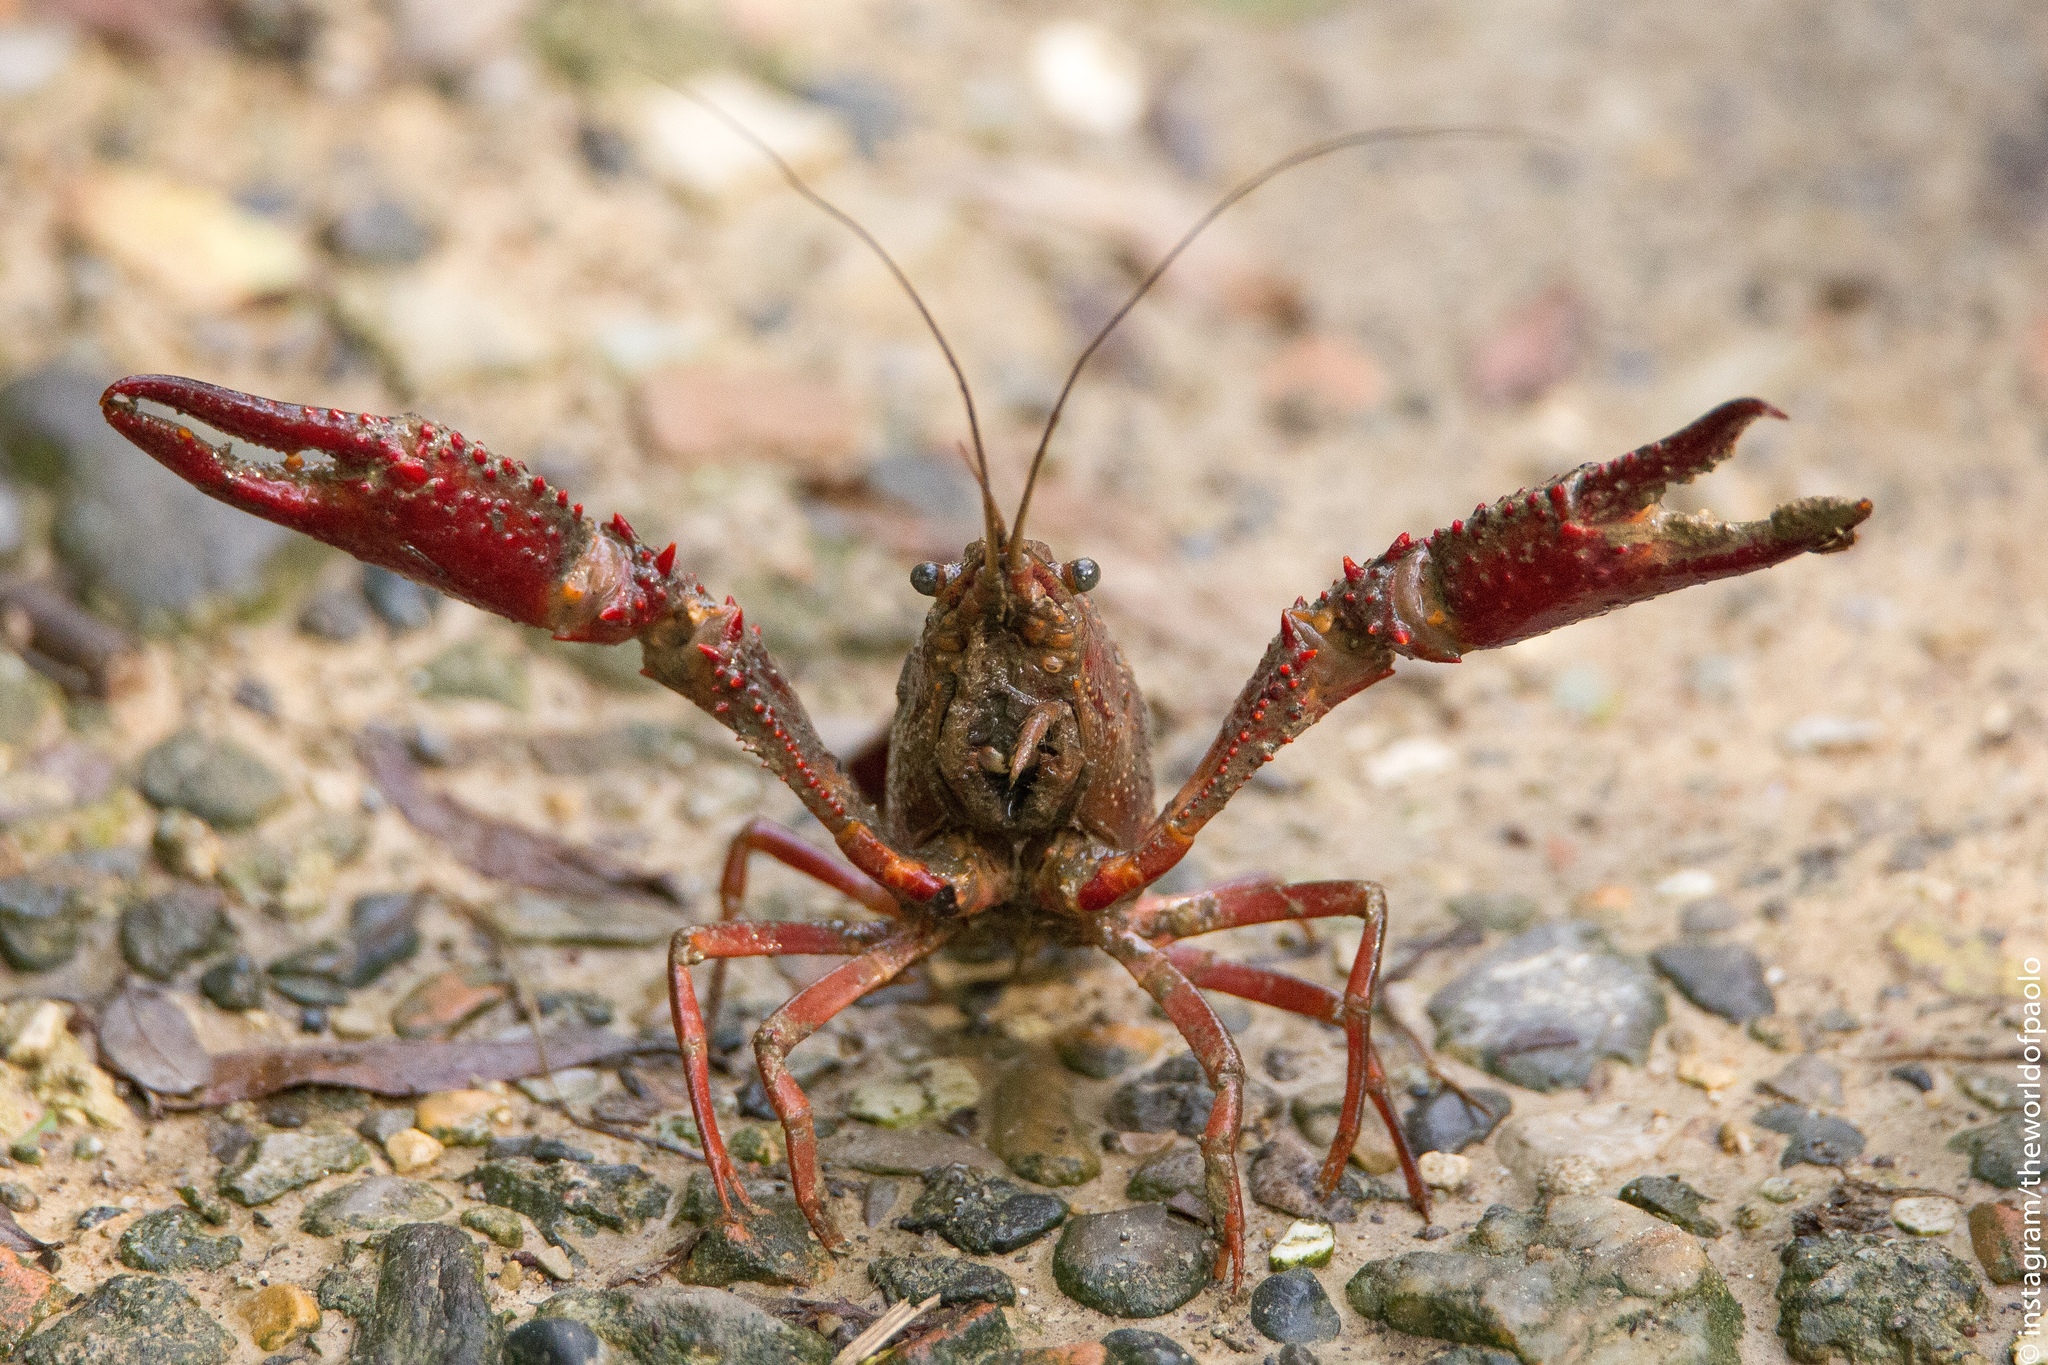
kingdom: Animalia
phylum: Arthropoda
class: Malacostraca
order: Decapoda
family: Cambaridae
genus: Procambarus
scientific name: Procambarus clarkii
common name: Red swamp crayfish
